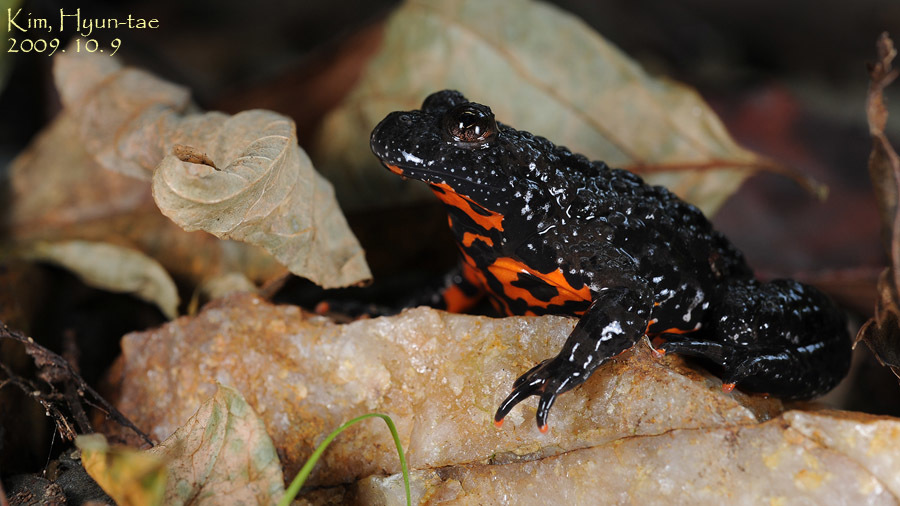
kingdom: Animalia
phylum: Chordata
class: Amphibia
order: Anura
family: Bombinatoridae
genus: Bombina
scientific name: Bombina orientalis
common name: Oriental firebelly toad
